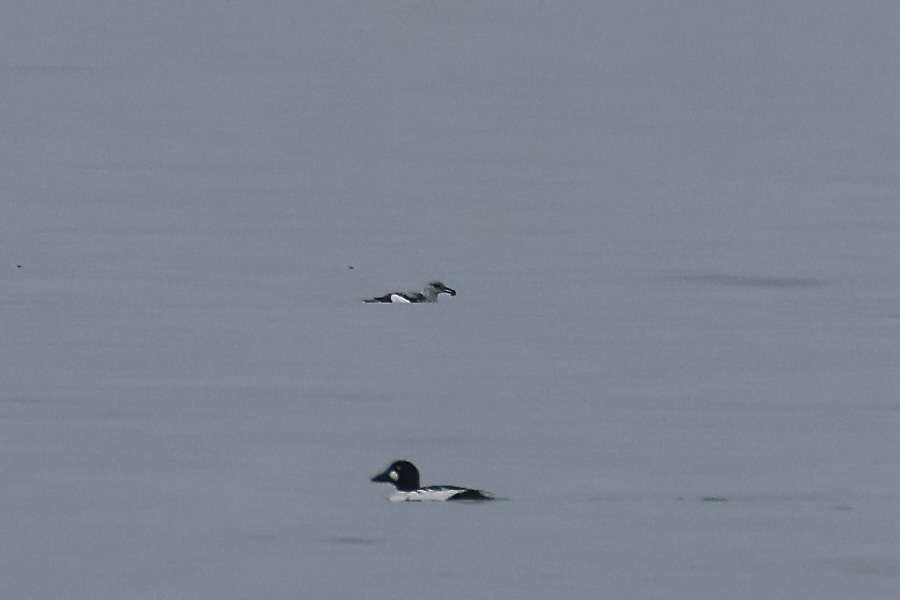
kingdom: Animalia
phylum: Chordata
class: Aves
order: Charadriiformes
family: Alcidae
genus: Cepphus
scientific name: Cepphus grylle
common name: Black guillemot
